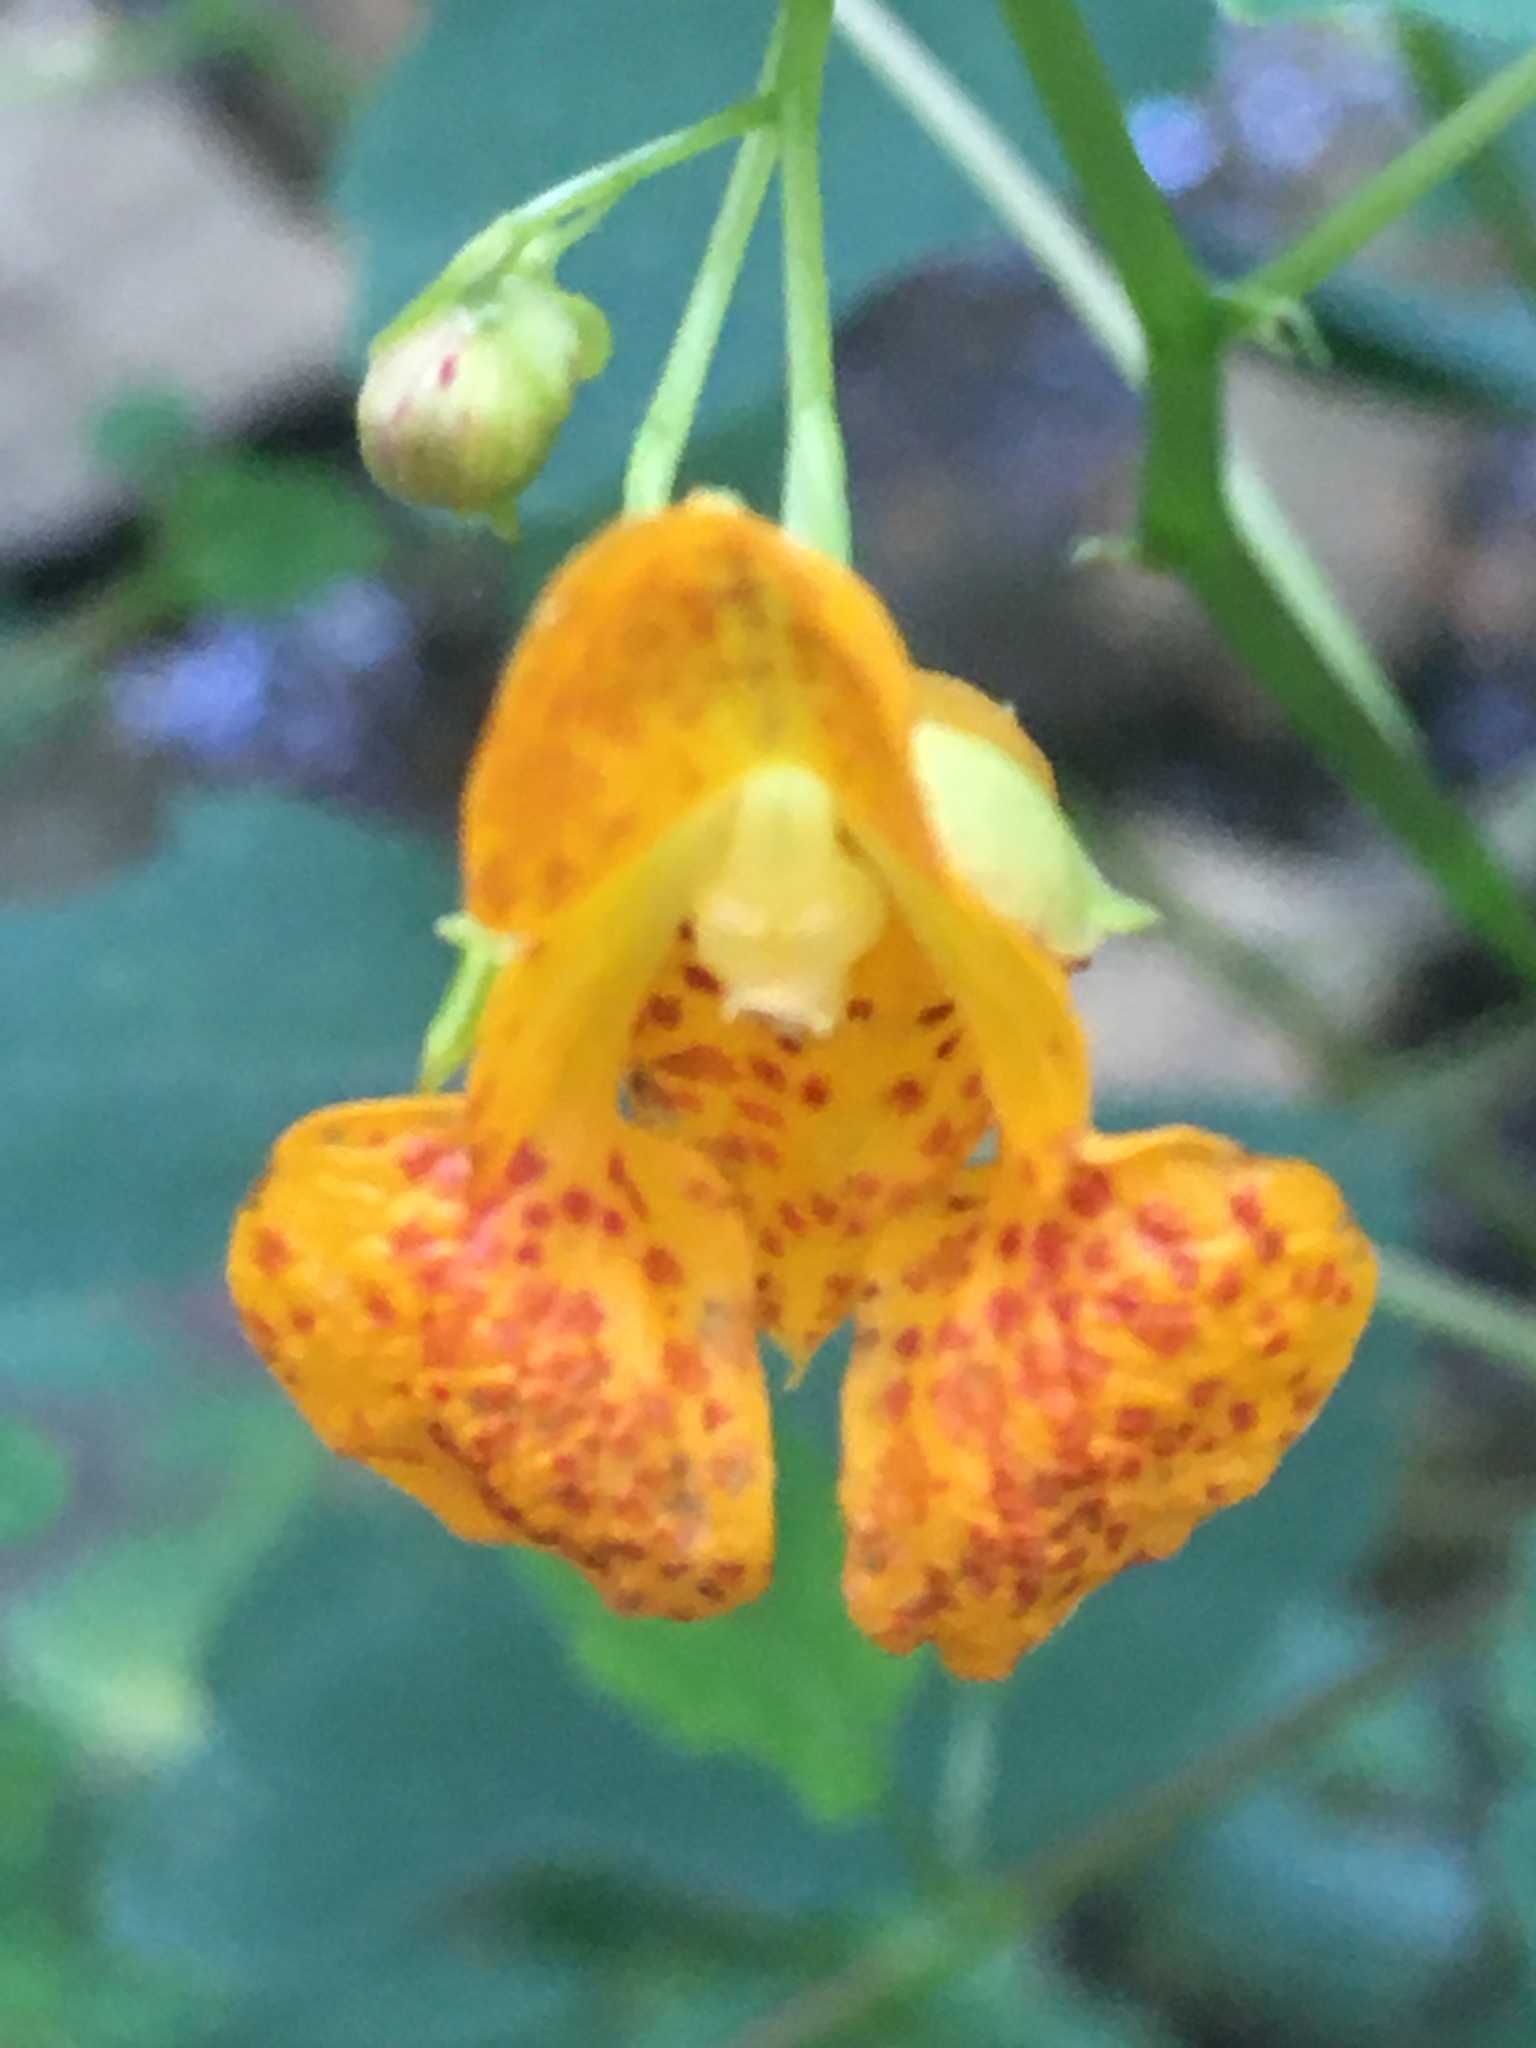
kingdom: Plantae
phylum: Tracheophyta
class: Magnoliopsida
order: Ericales
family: Balsaminaceae
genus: Impatiens
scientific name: Impatiens capensis
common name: Orange balsam
